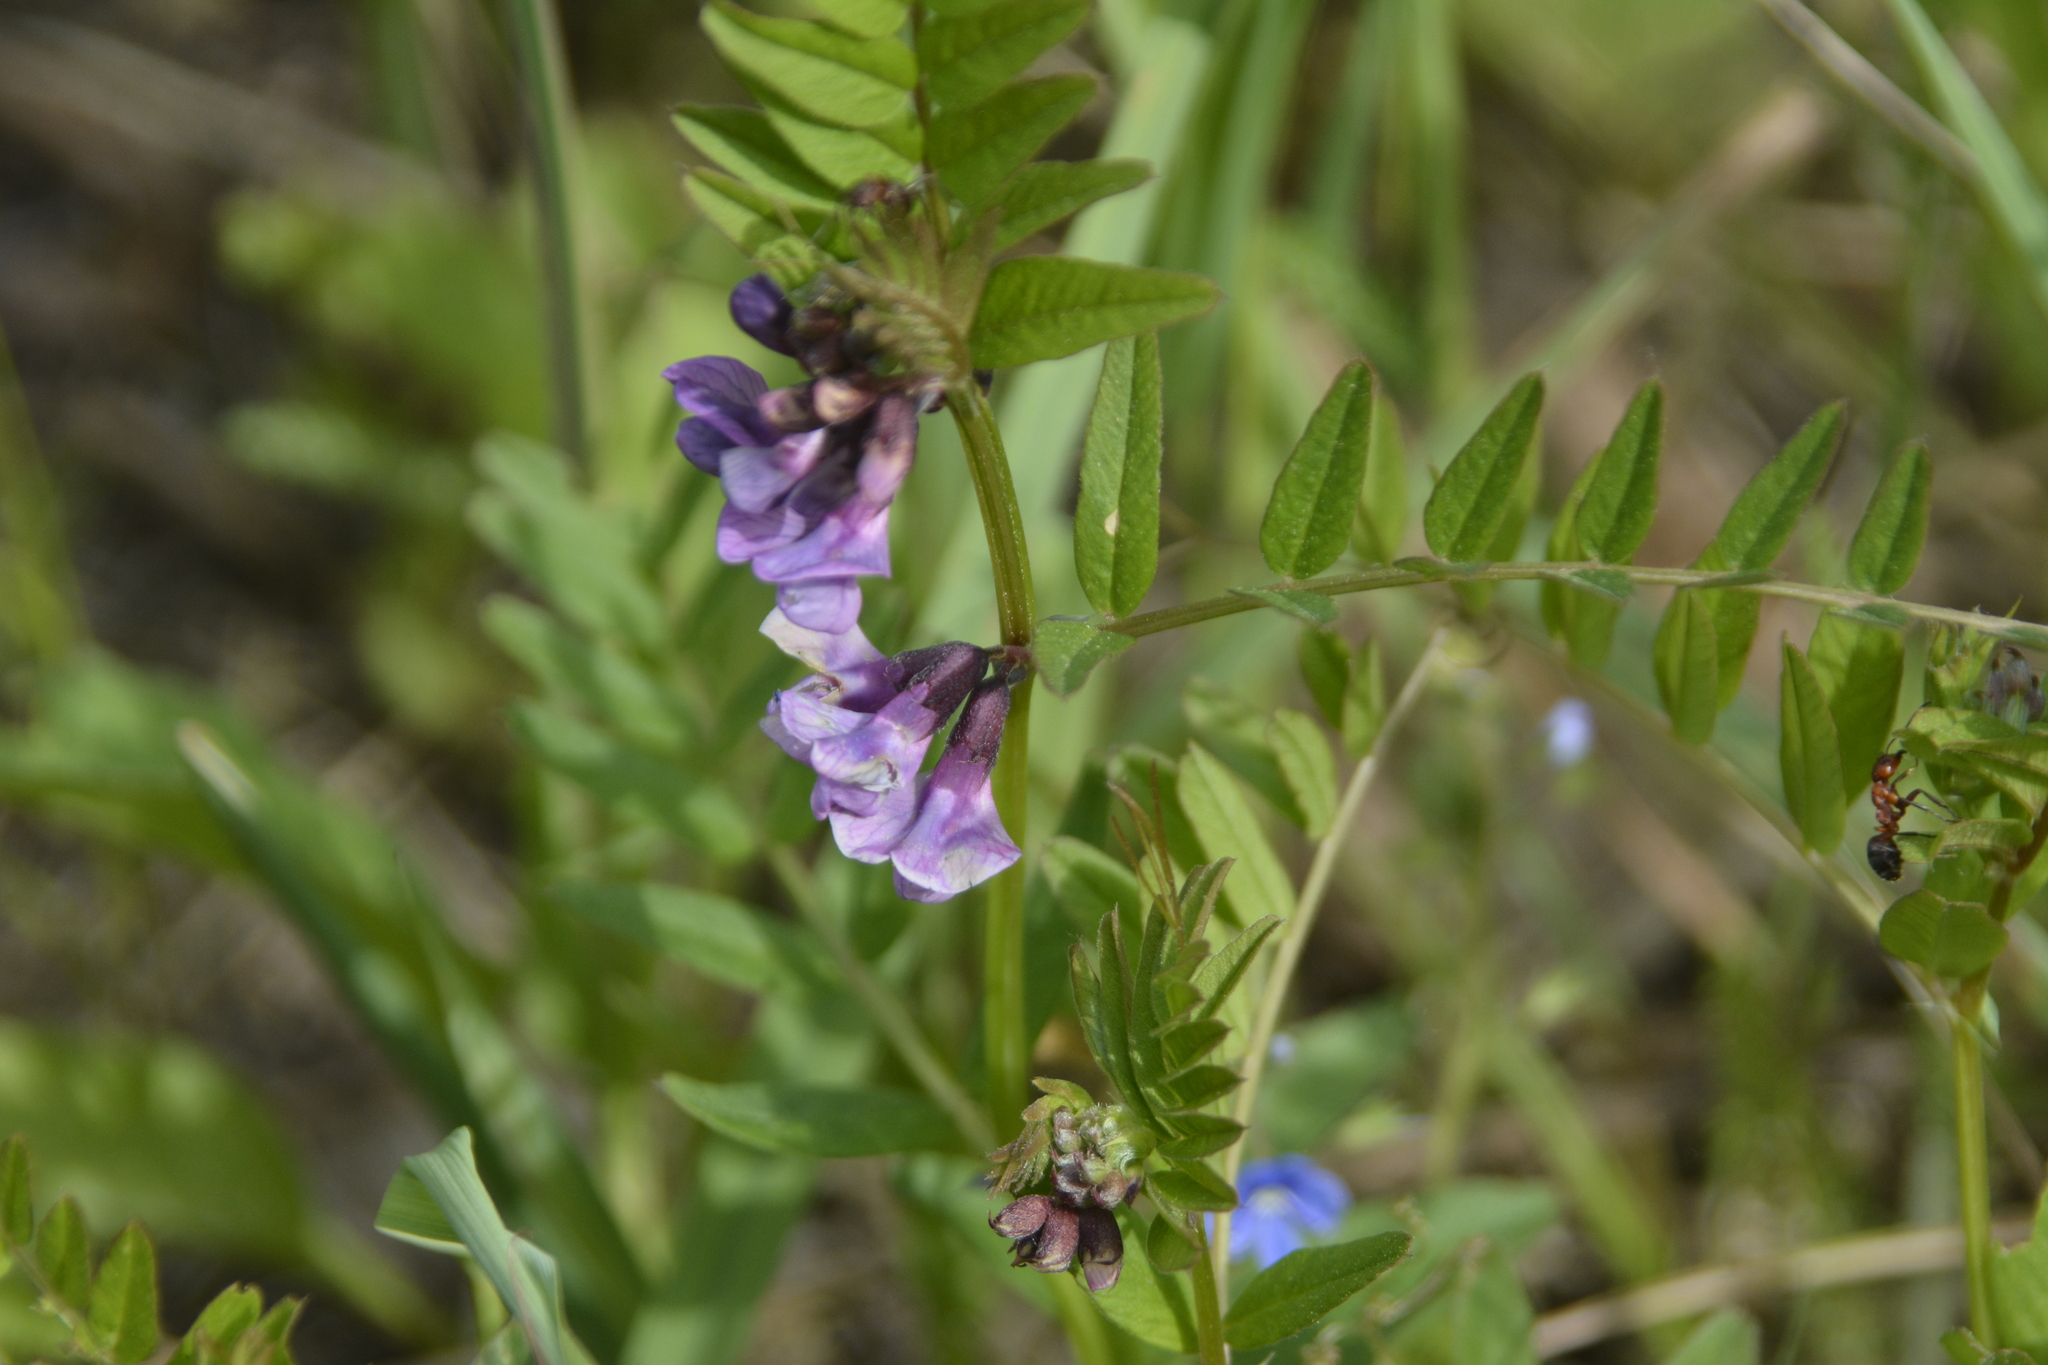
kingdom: Plantae
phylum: Tracheophyta
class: Magnoliopsida
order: Fabales
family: Fabaceae
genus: Vicia
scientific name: Vicia sepium
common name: Bush vetch
